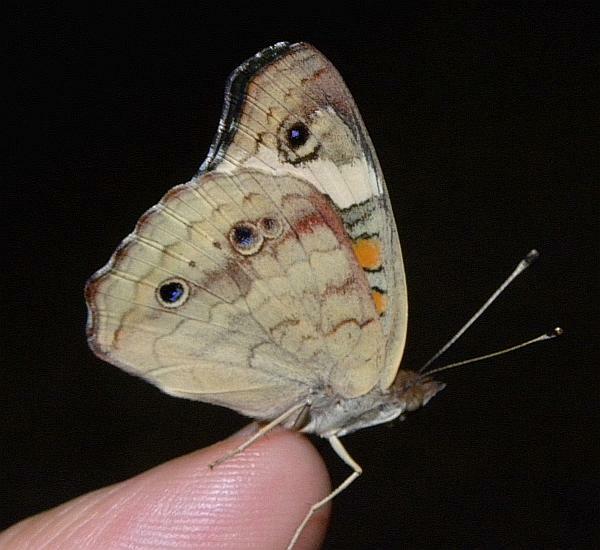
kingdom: Animalia
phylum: Arthropoda
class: Insecta
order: Lepidoptera
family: Nymphalidae
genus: Junonia
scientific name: Junonia coenia
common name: Common buckeye
